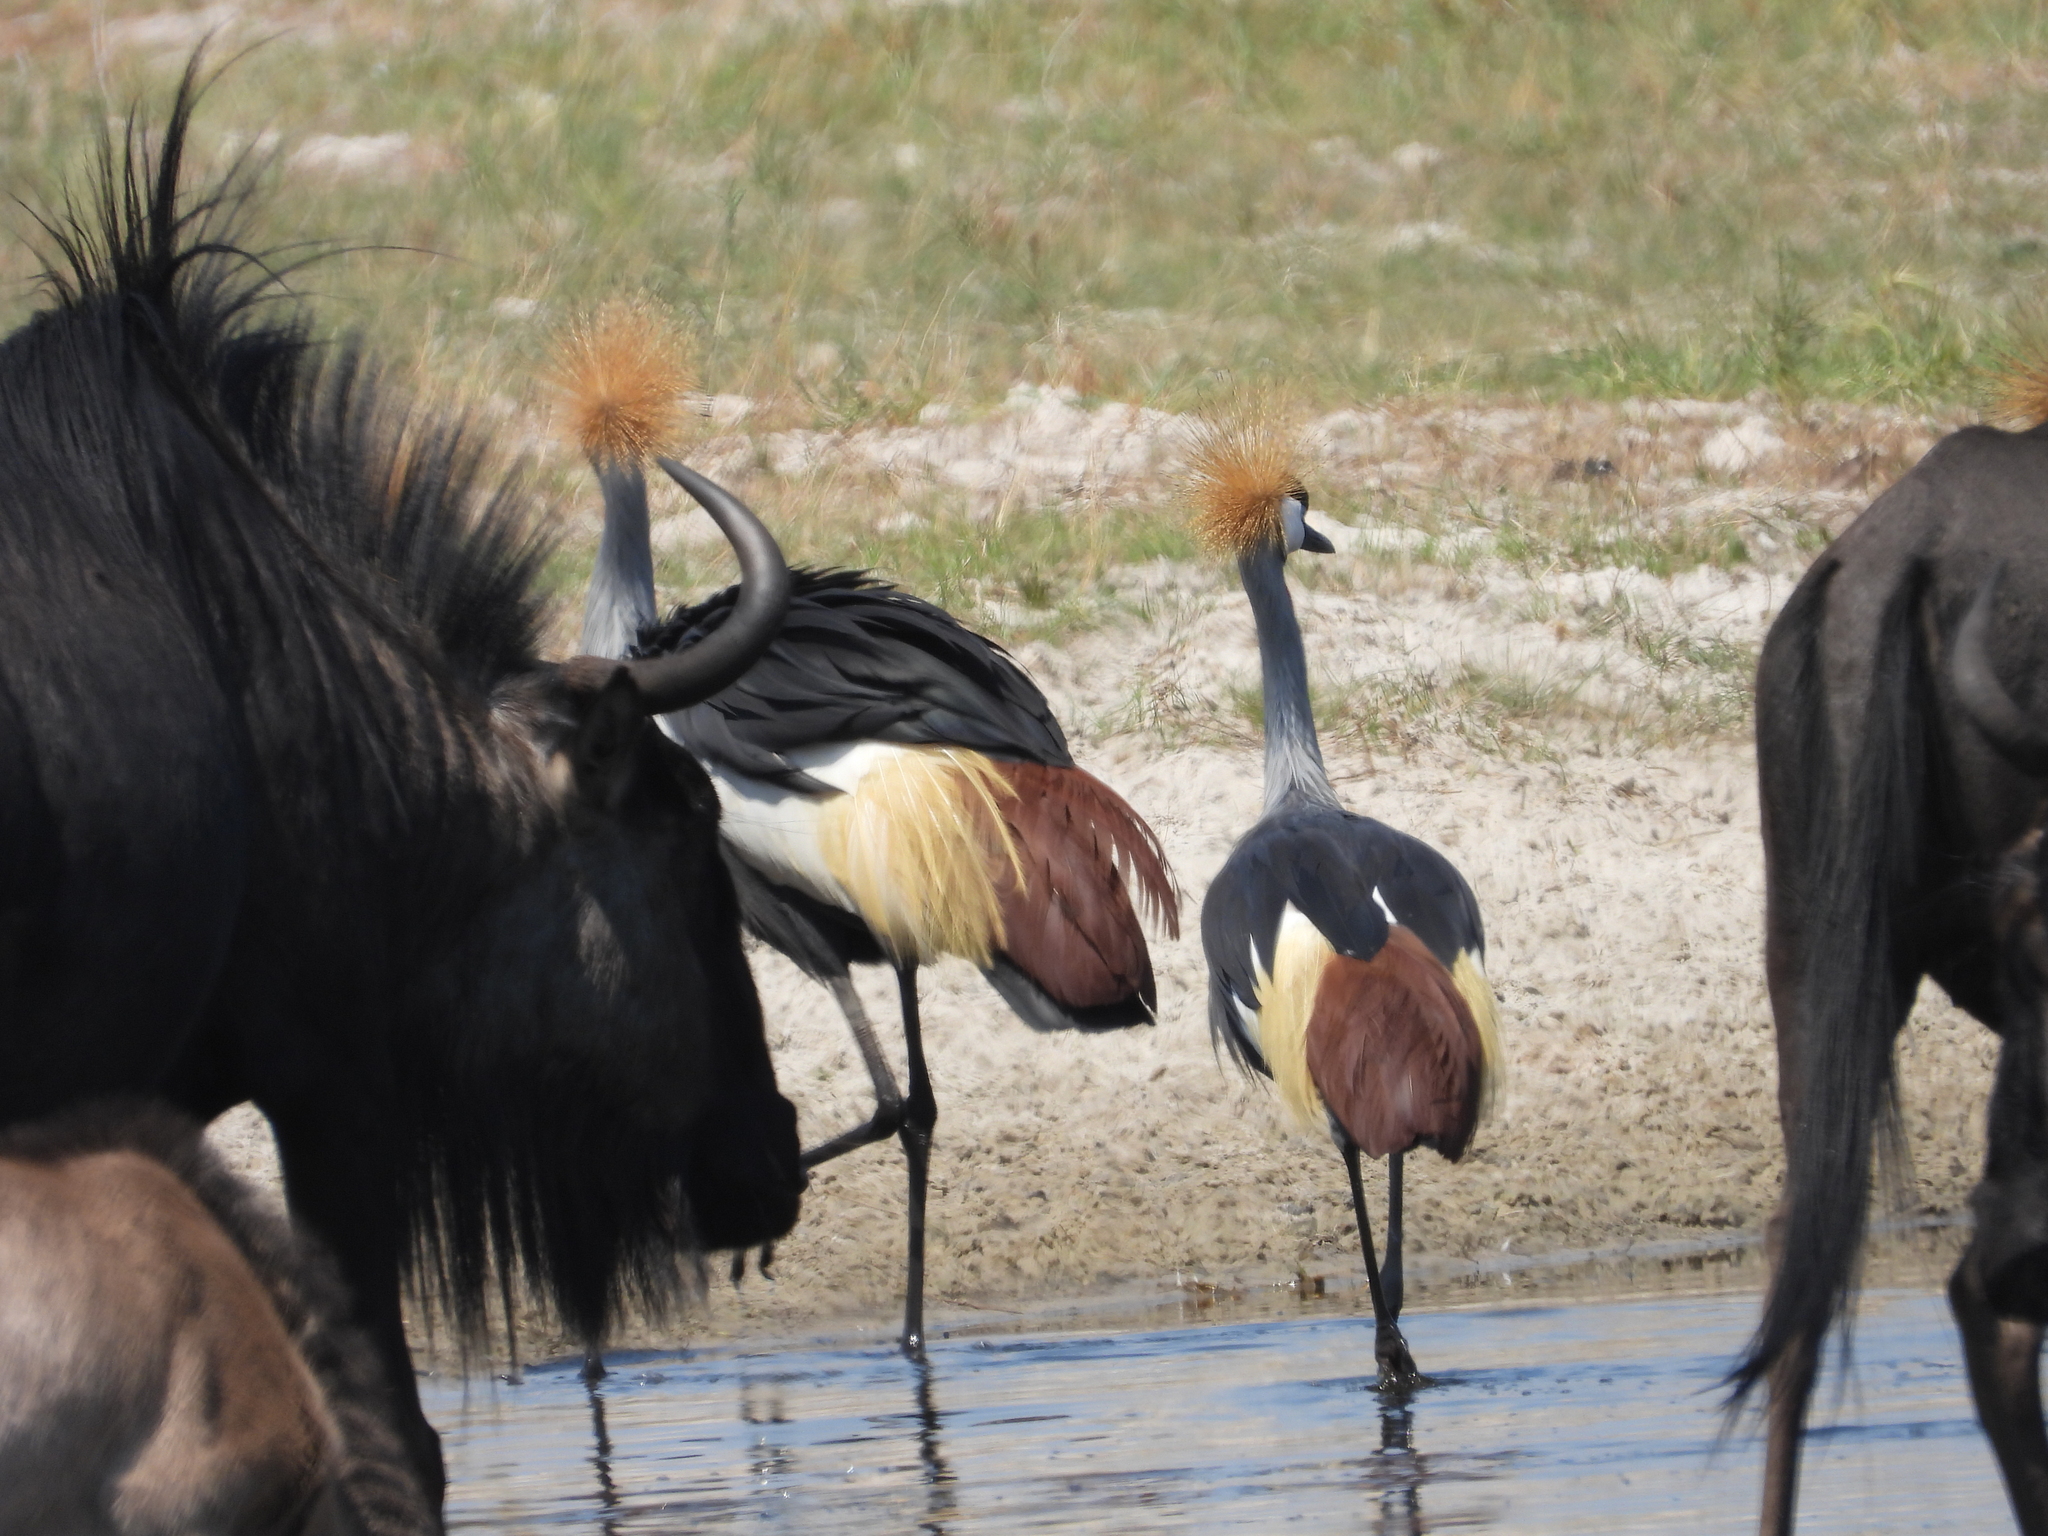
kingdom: Animalia
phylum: Chordata
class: Aves
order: Gruiformes
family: Gruidae
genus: Balearica
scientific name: Balearica regulorum
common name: Grey crowned crane
